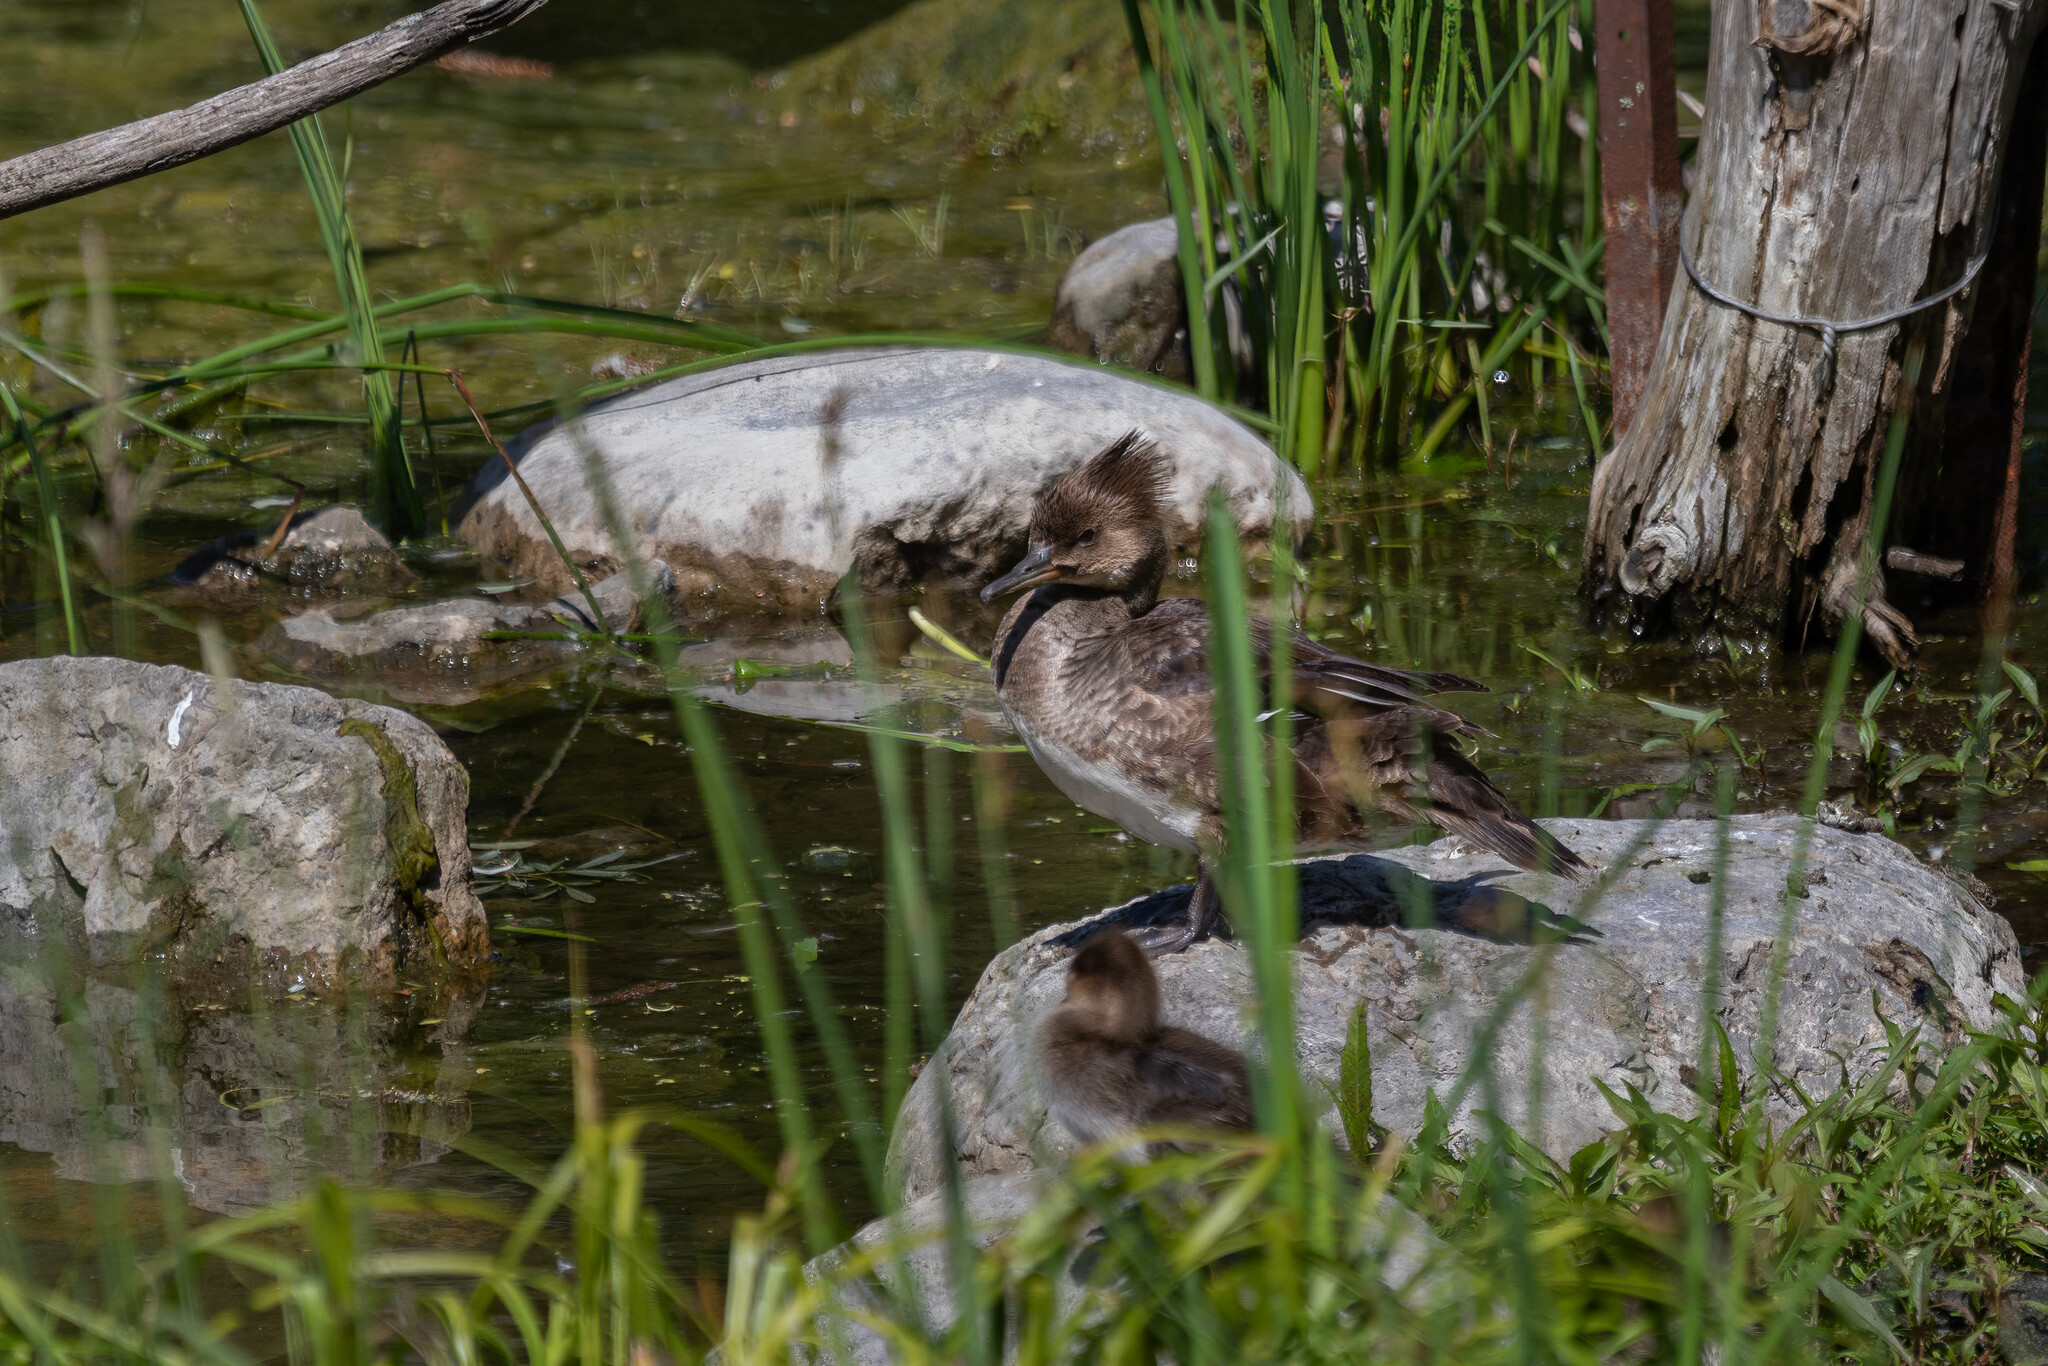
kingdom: Animalia
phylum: Chordata
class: Aves
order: Anseriformes
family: Anatidae
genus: Lophodytes
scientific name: Lophodytes cucullatus
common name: Hooded merganser
